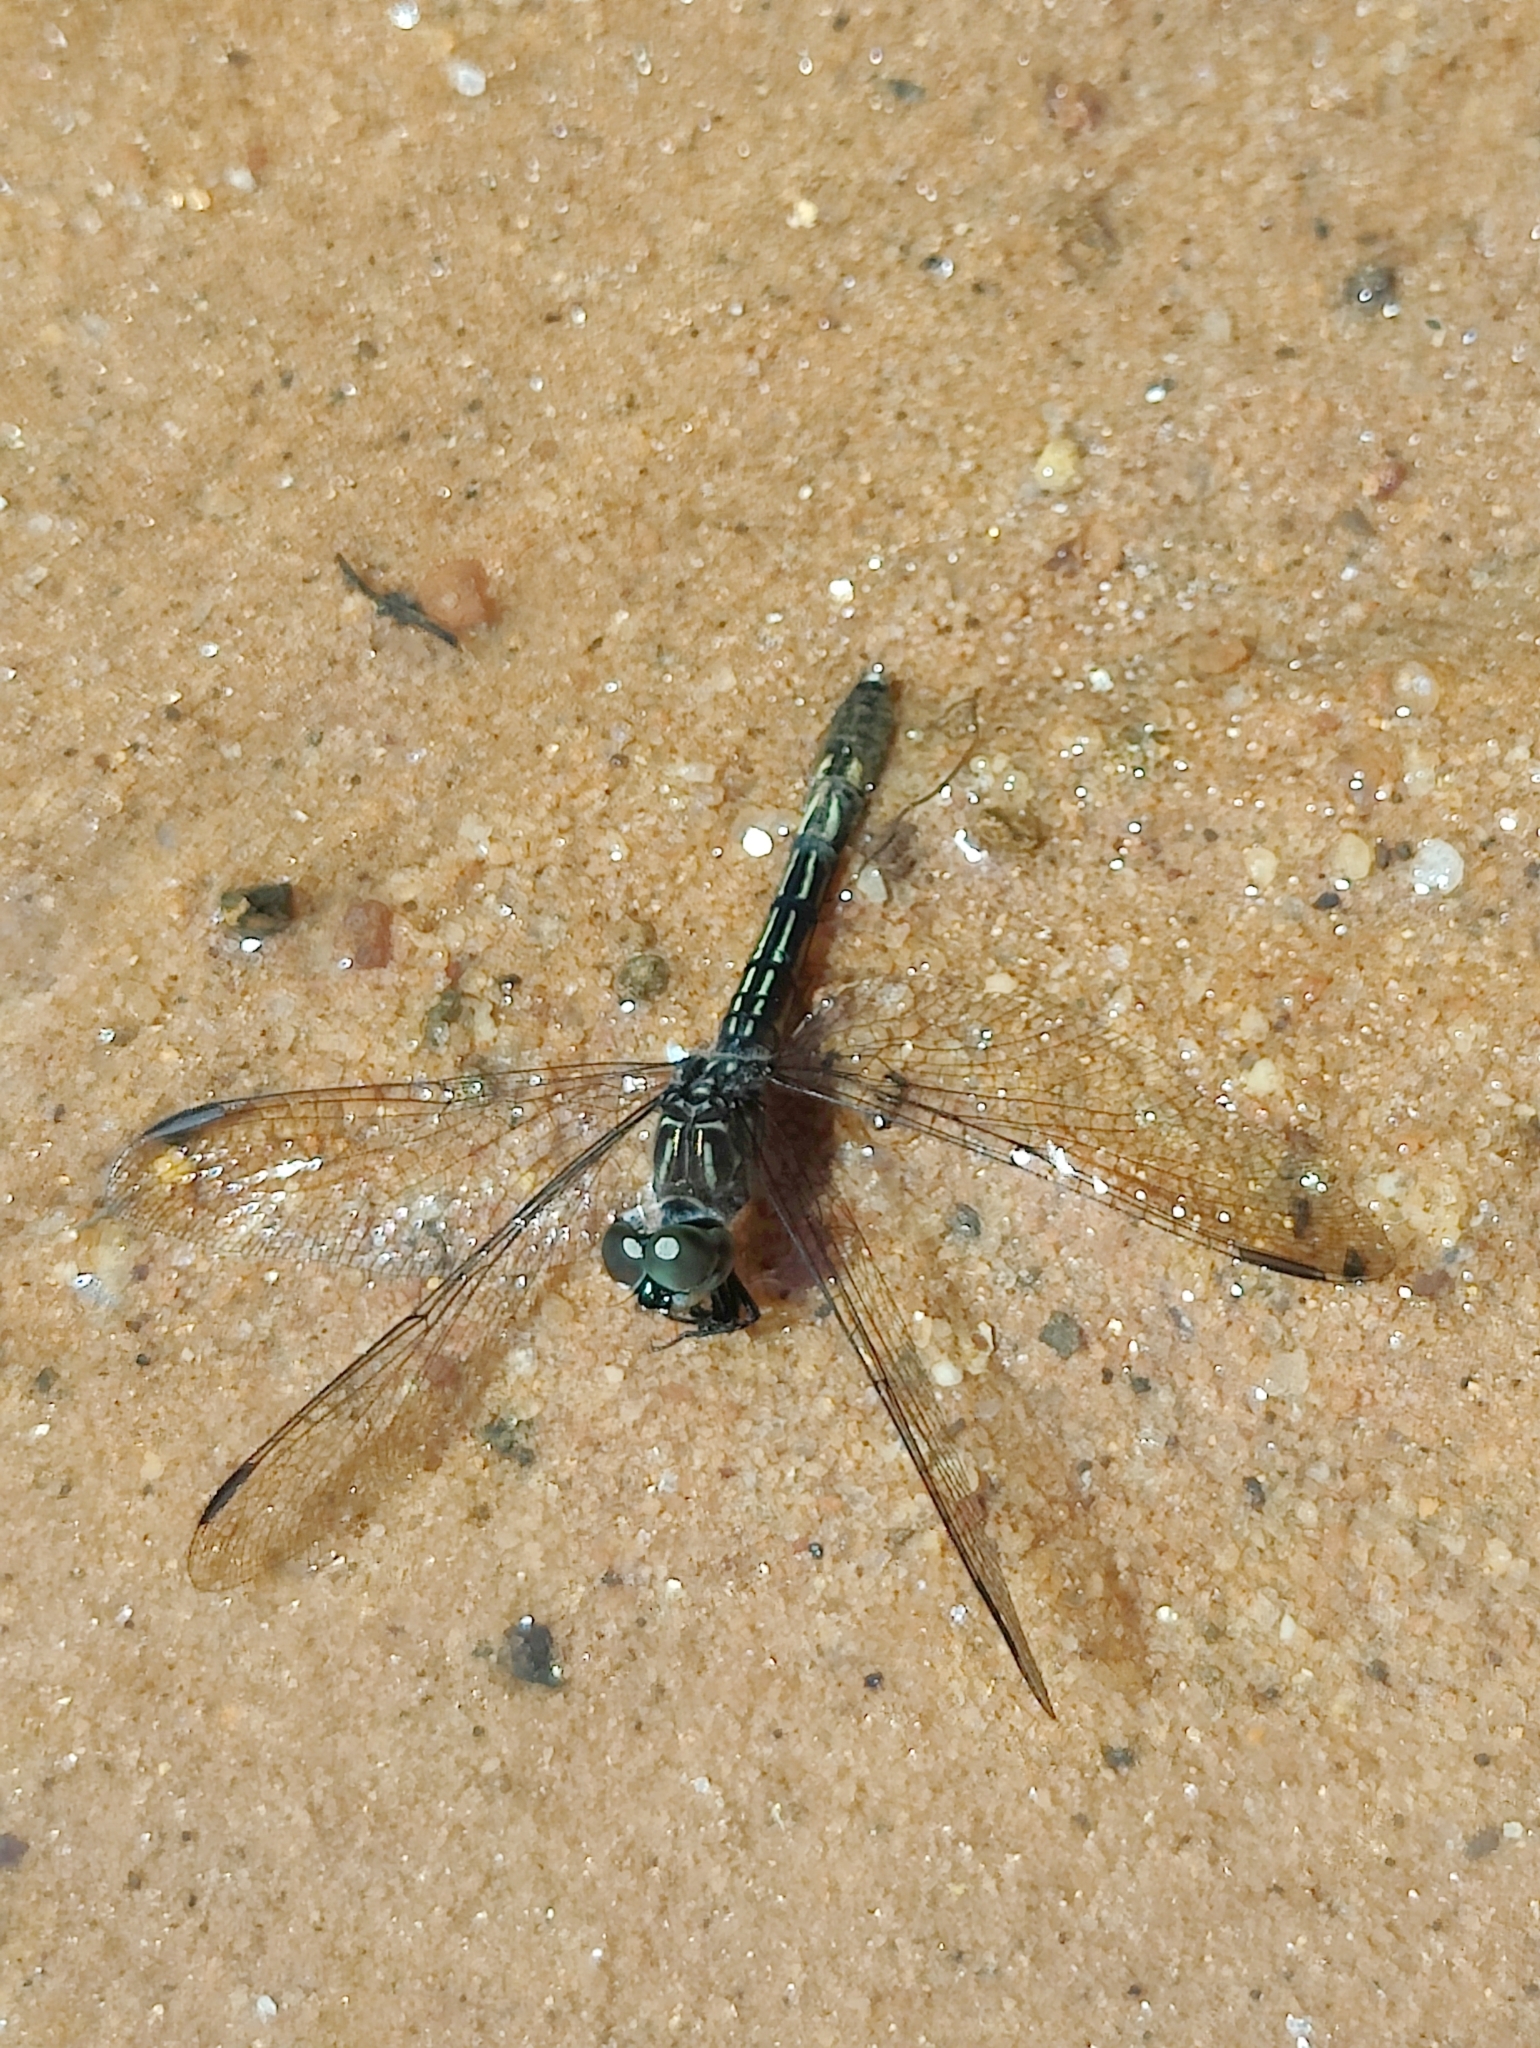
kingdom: Animalia
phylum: Arthropoda
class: Insecta
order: Odonata
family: Libellulidae
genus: Pachydiplax
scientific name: Pachydiplax longipennis
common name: Blue dasher
